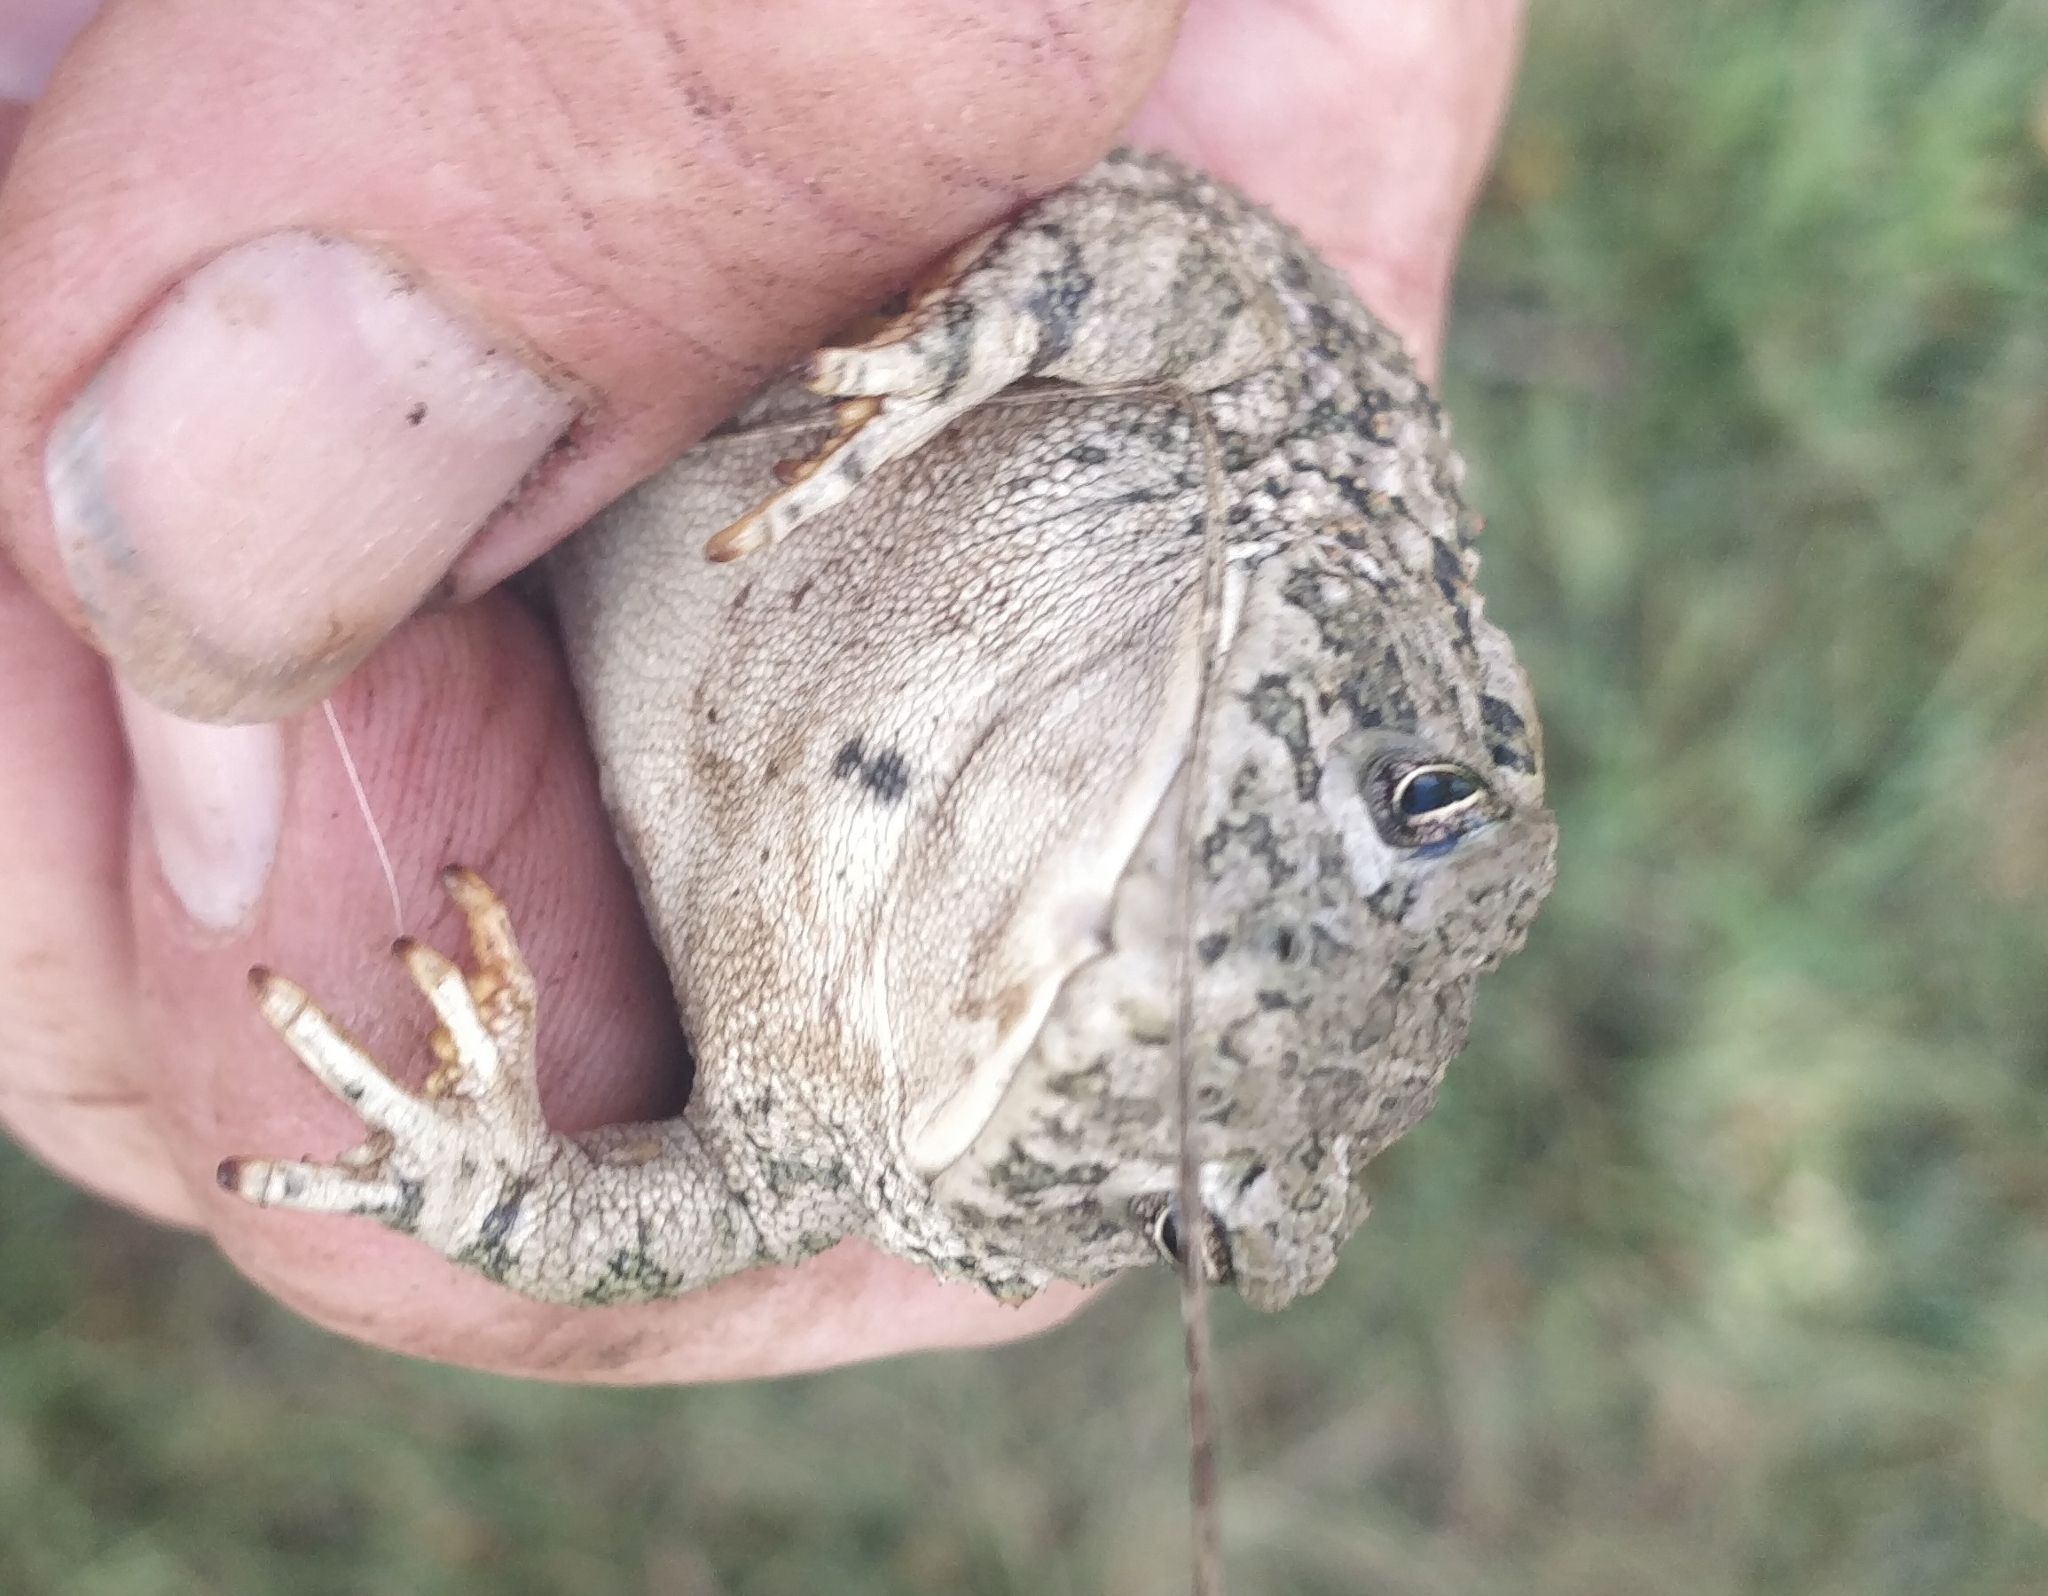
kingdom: Animalia
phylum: Chordata
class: Amphibia
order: Anura
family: Bufonidae
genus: Anaxyrus
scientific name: Anaxyrus woodhousii
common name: Woodhouse's toad
